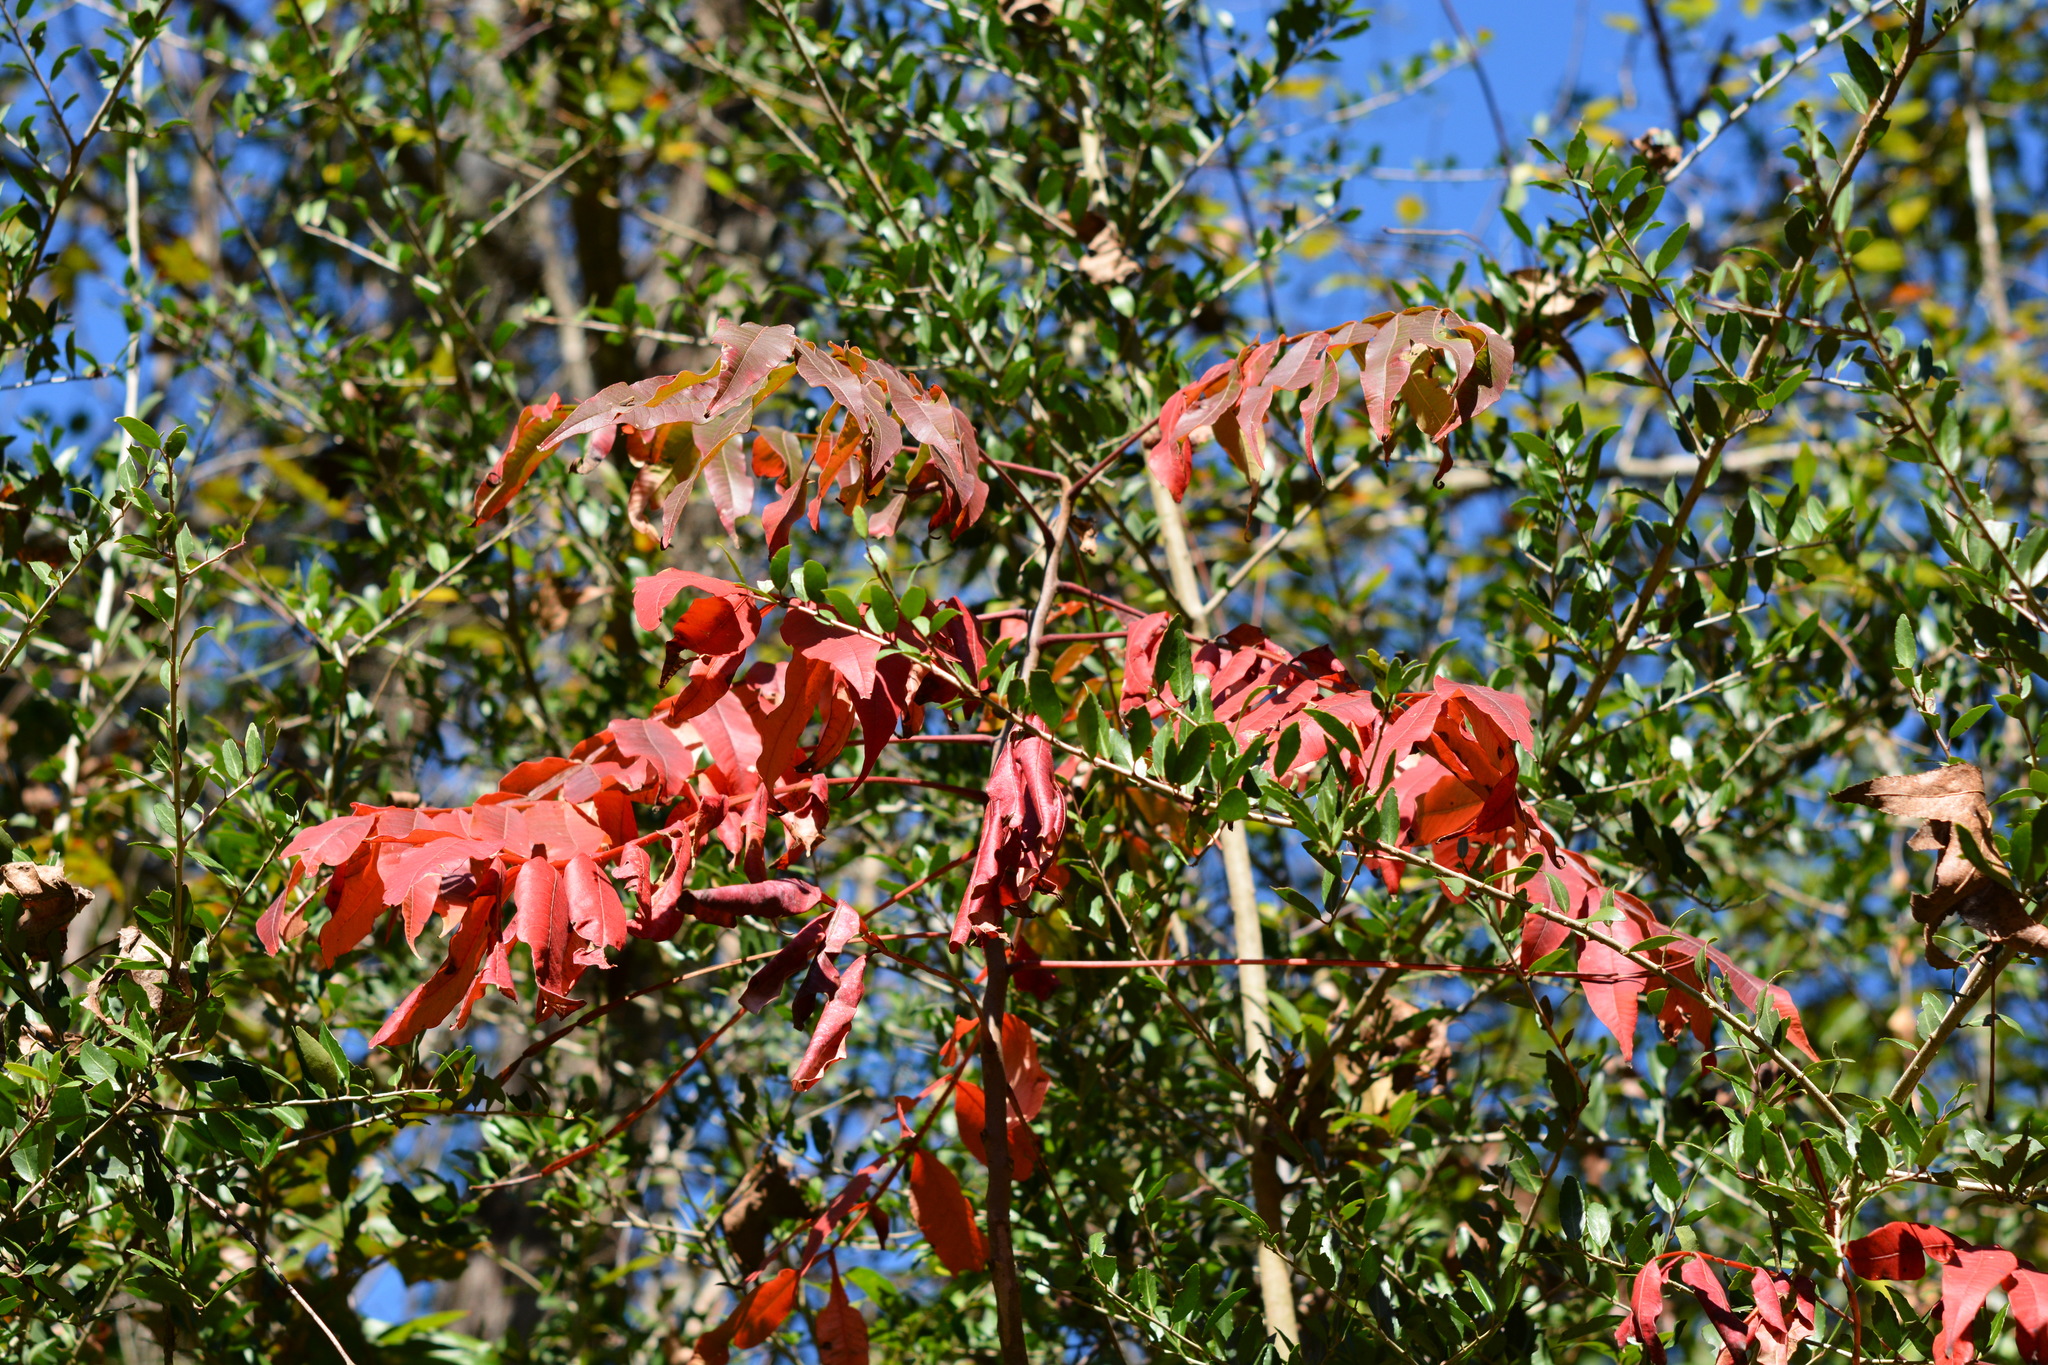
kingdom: Plantae
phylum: Tracheophyta
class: Magnoliopsida
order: Sapindales
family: Anacardiaceae
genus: Rhus
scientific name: Rhus copallina
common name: Shining sumac
